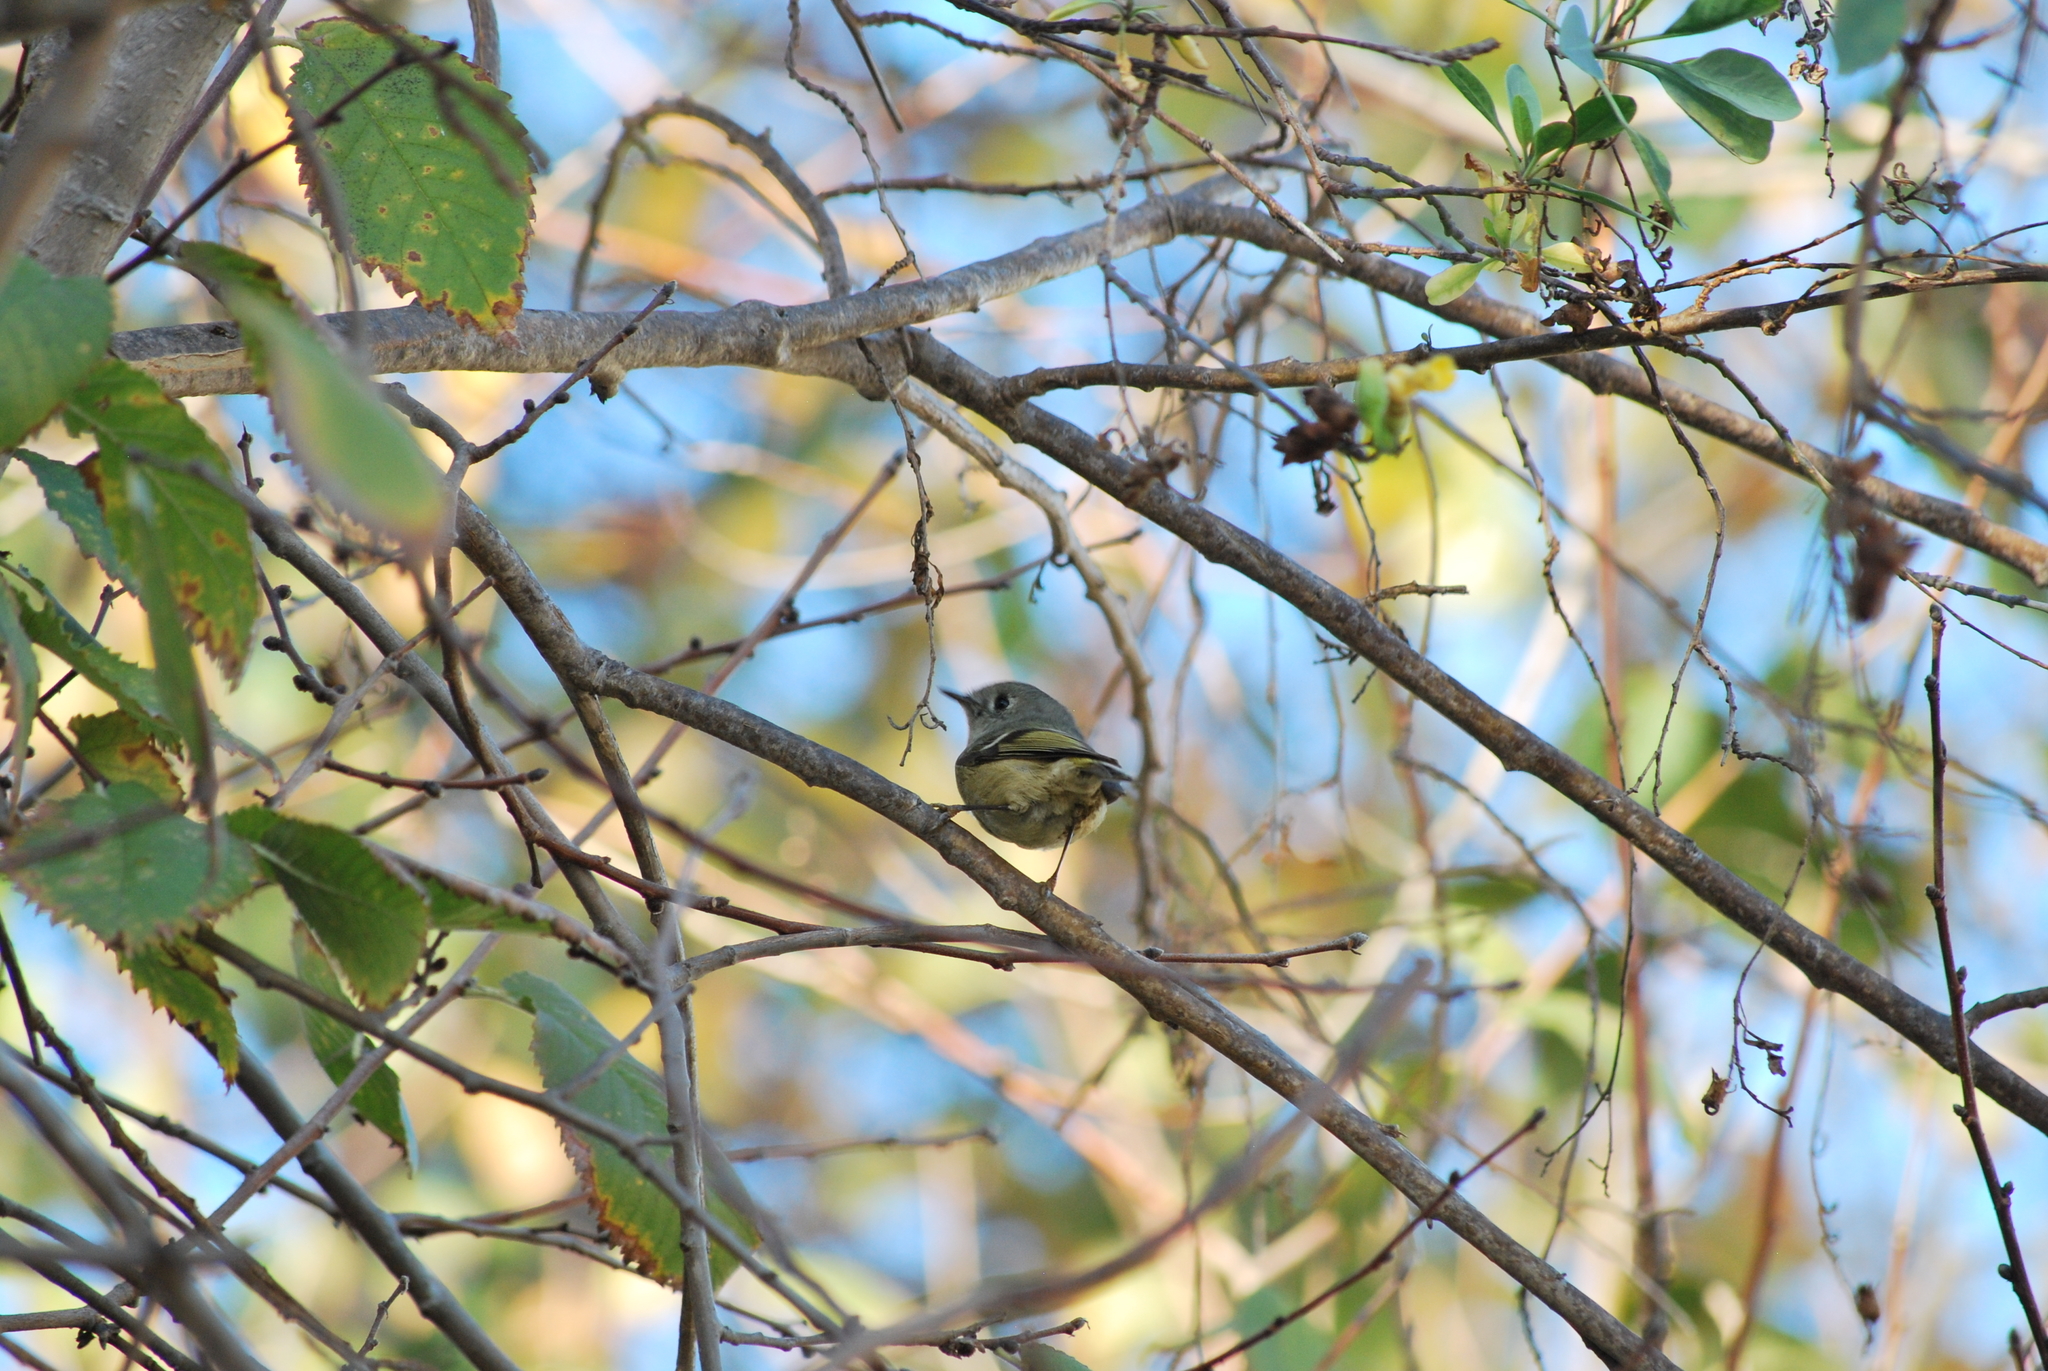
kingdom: Animalia
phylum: Chordata
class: Aves
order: Passeriformes
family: Regulidae
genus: Regulus
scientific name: Regulus calendula
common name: Ruby-crowned kinglet
